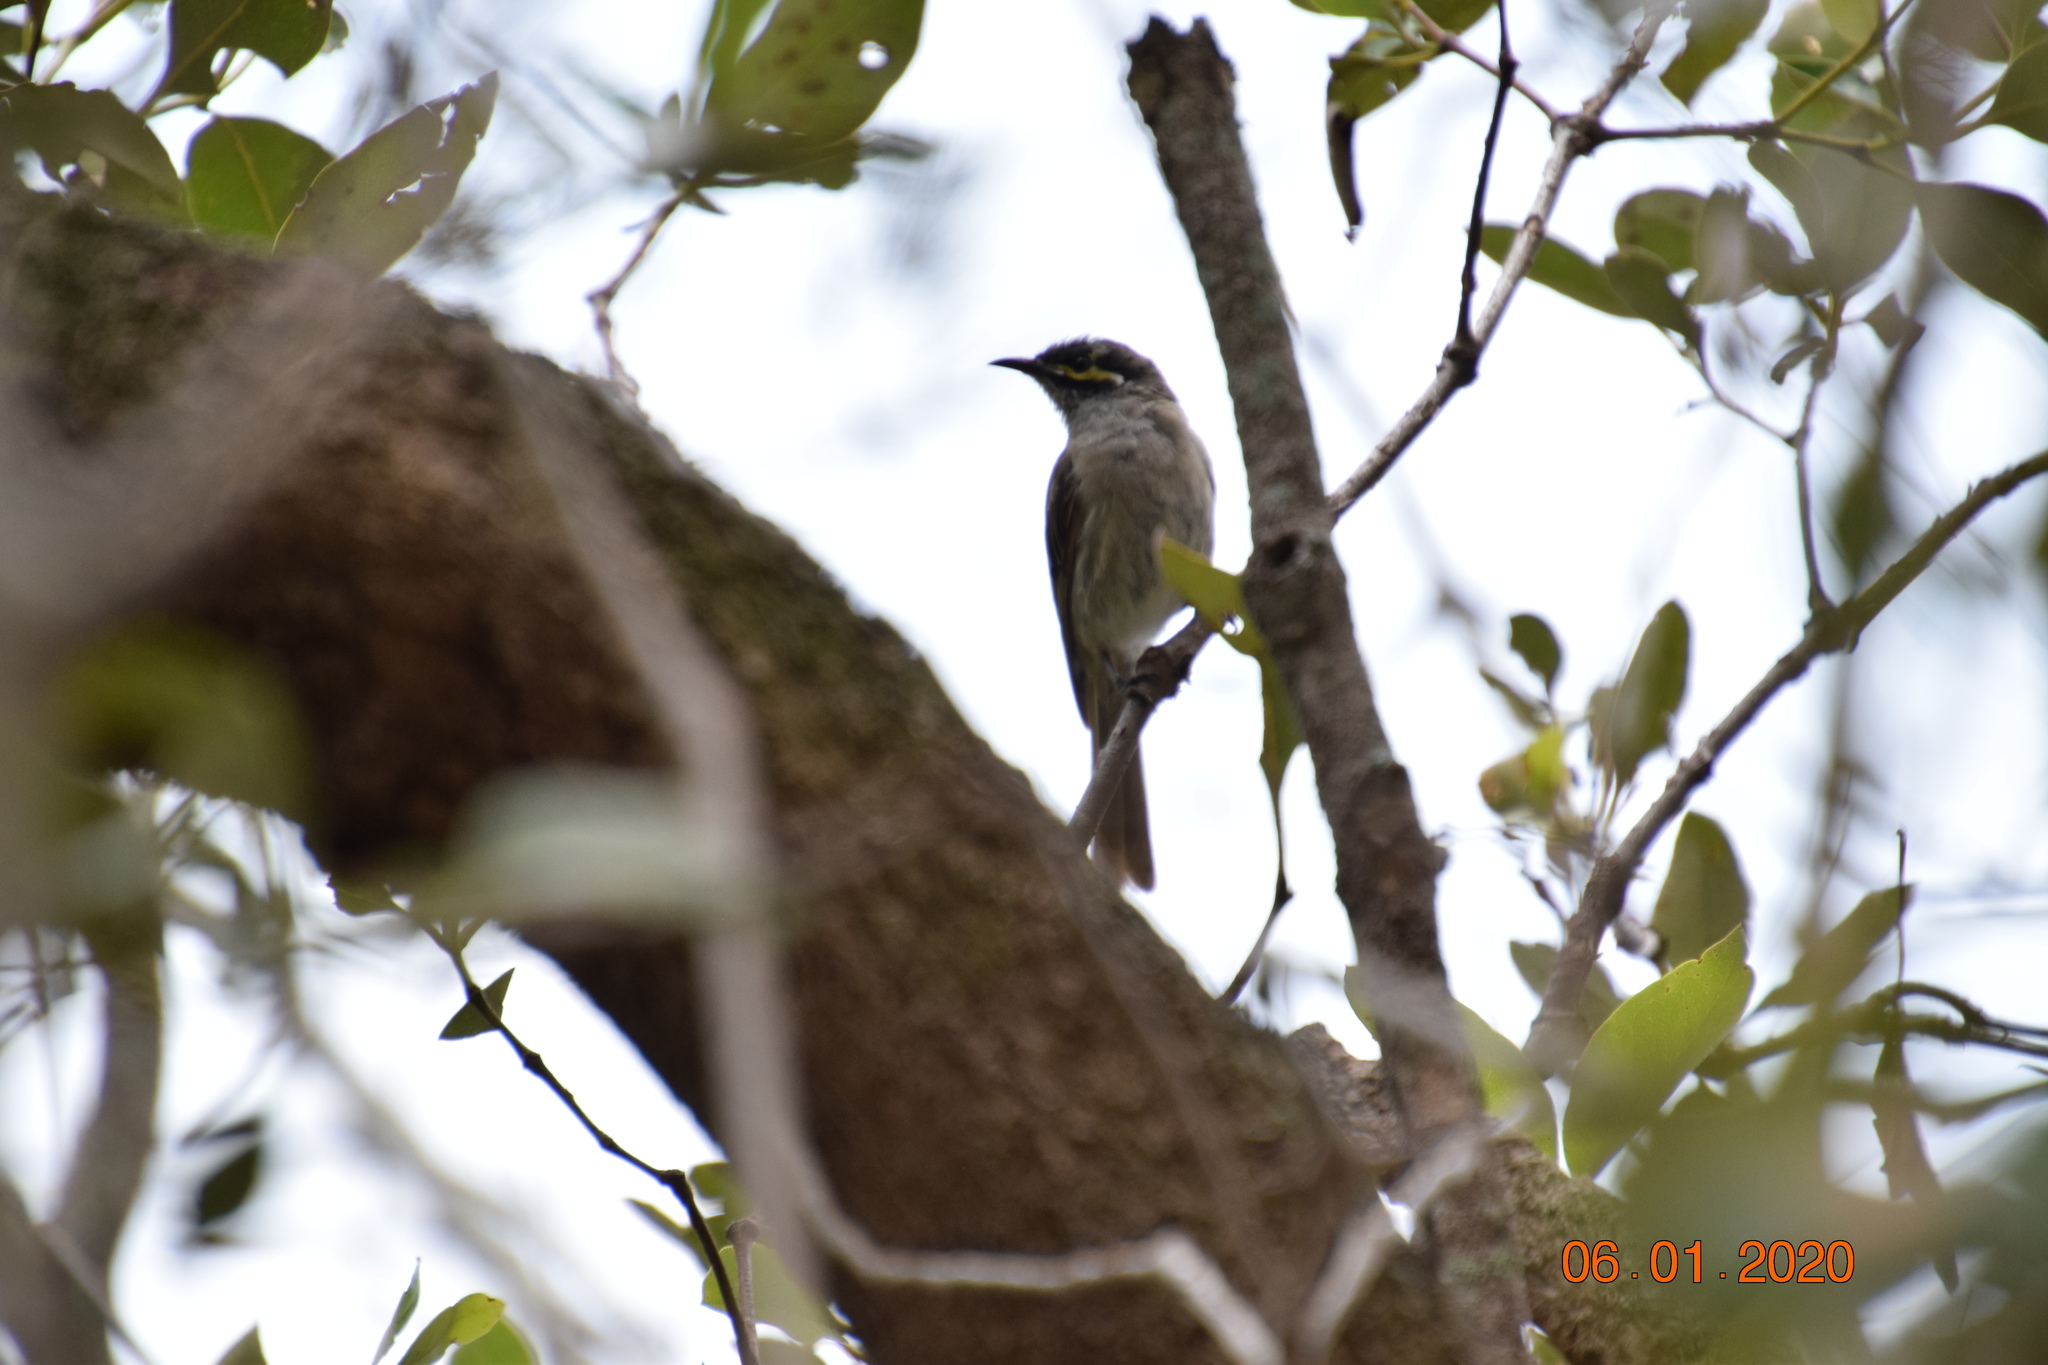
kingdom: Animalia
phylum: Chordata
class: Aves
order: Passeriformes
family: Meliphagidae
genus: Caligavis
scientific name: Caligavis chrysops
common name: Yellow-faced honeyeater
